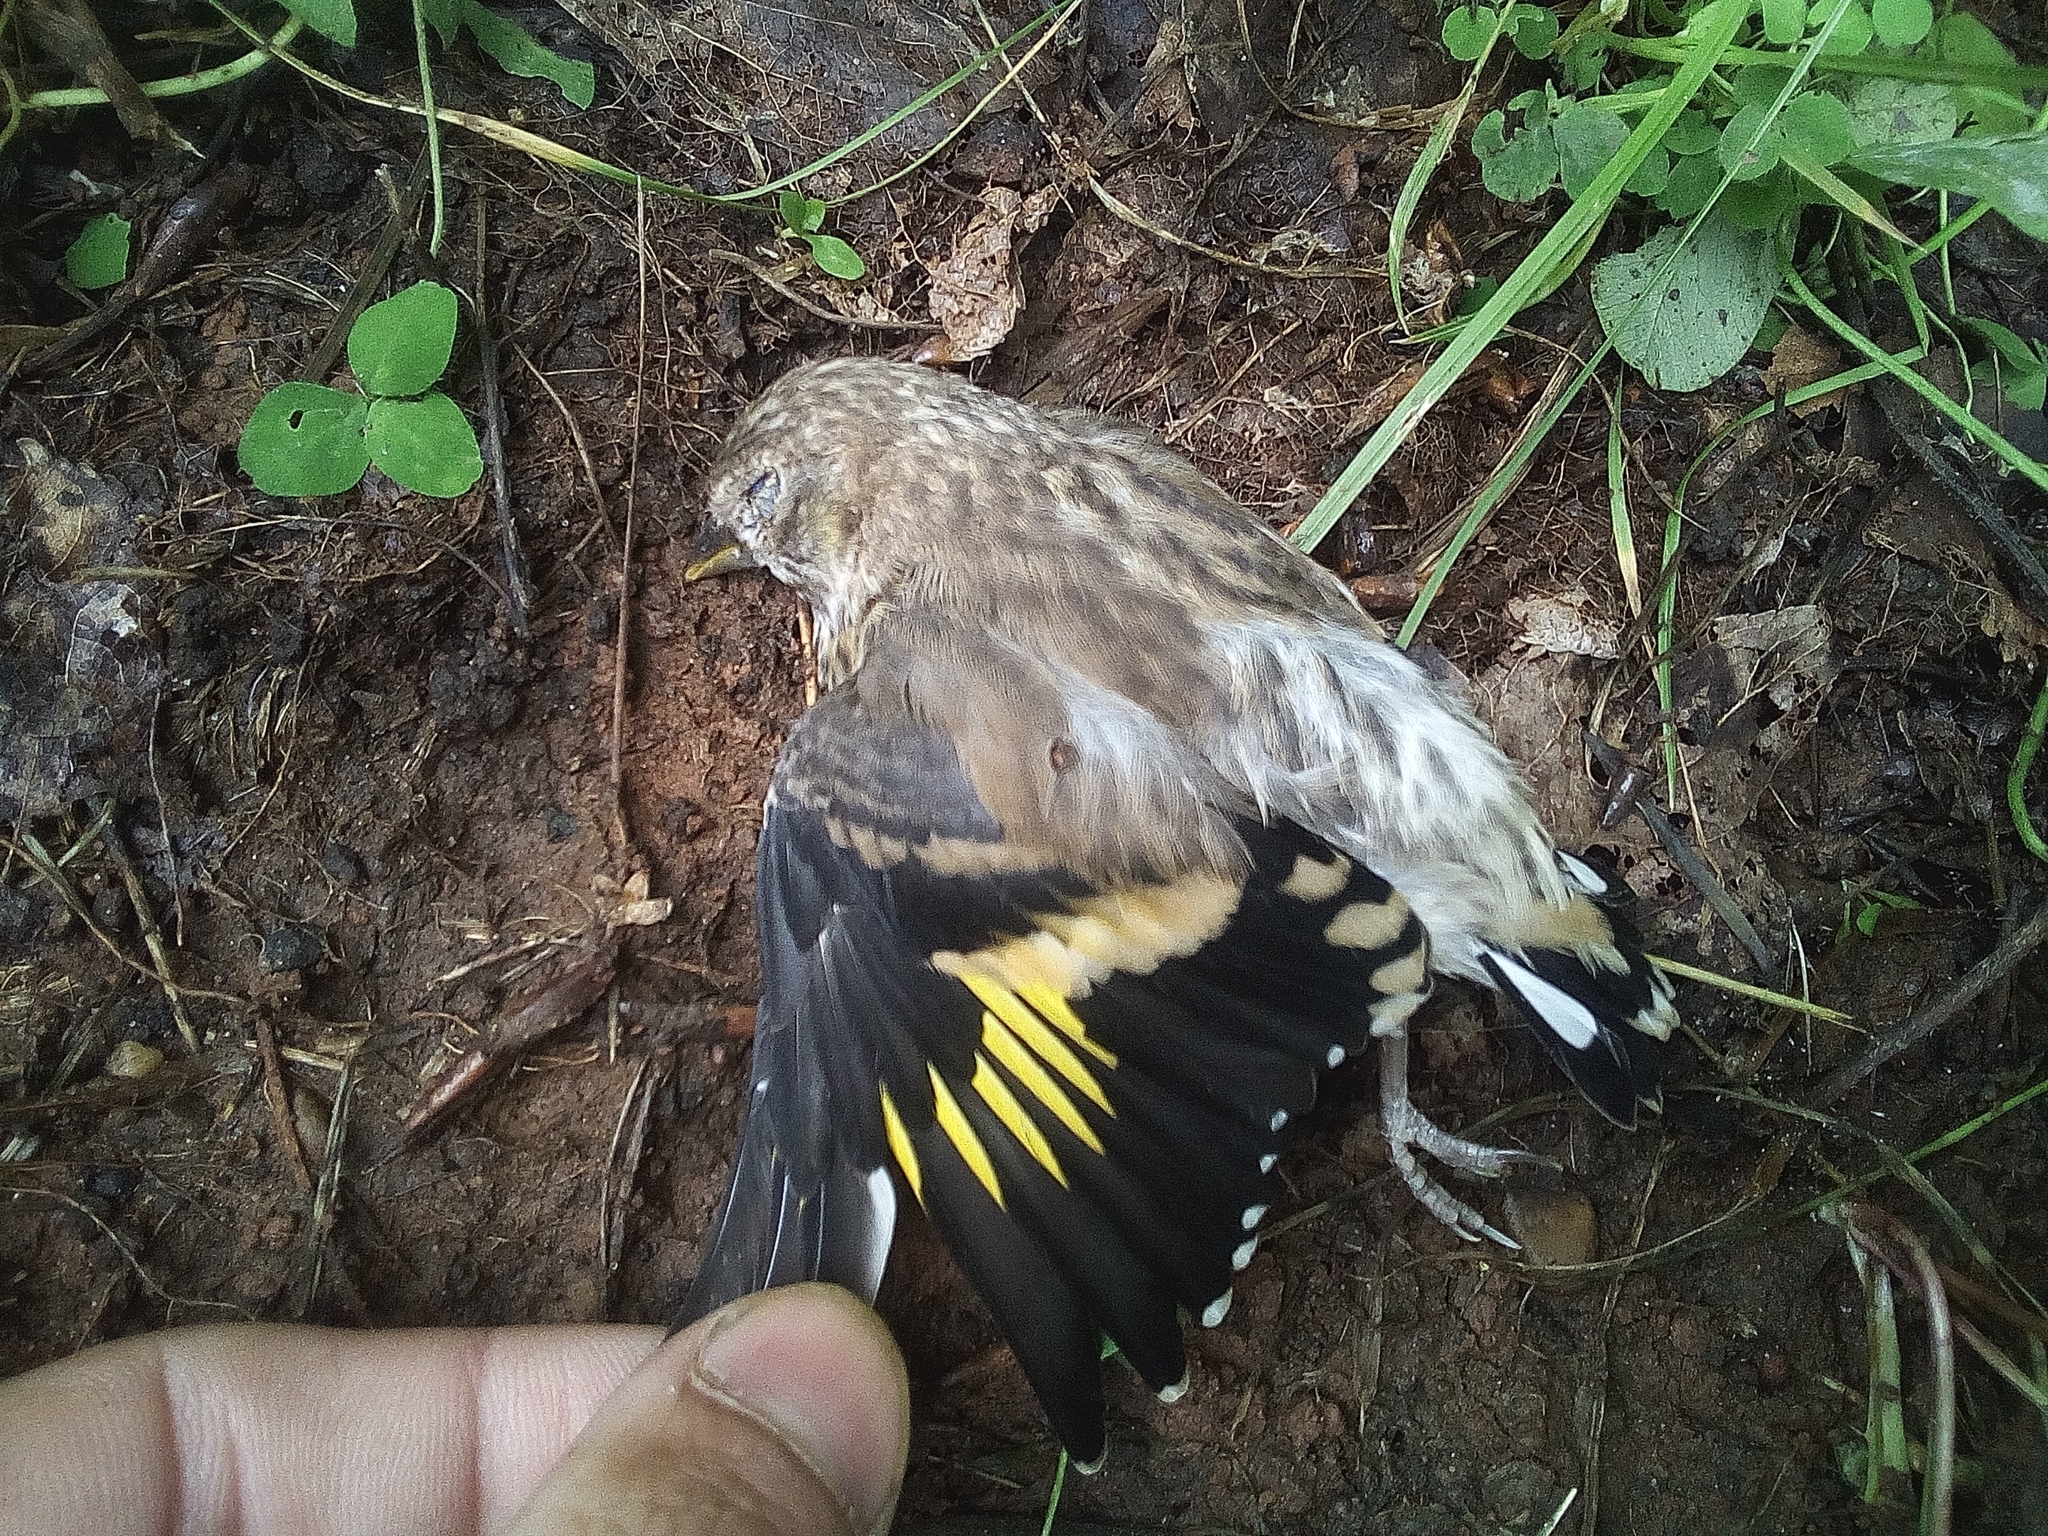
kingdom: Animalia
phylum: Chordata
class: Aves
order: Passeriformes
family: Fringillidae
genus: Carduelis
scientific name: Carduelis carduelis
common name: European goldfinch
